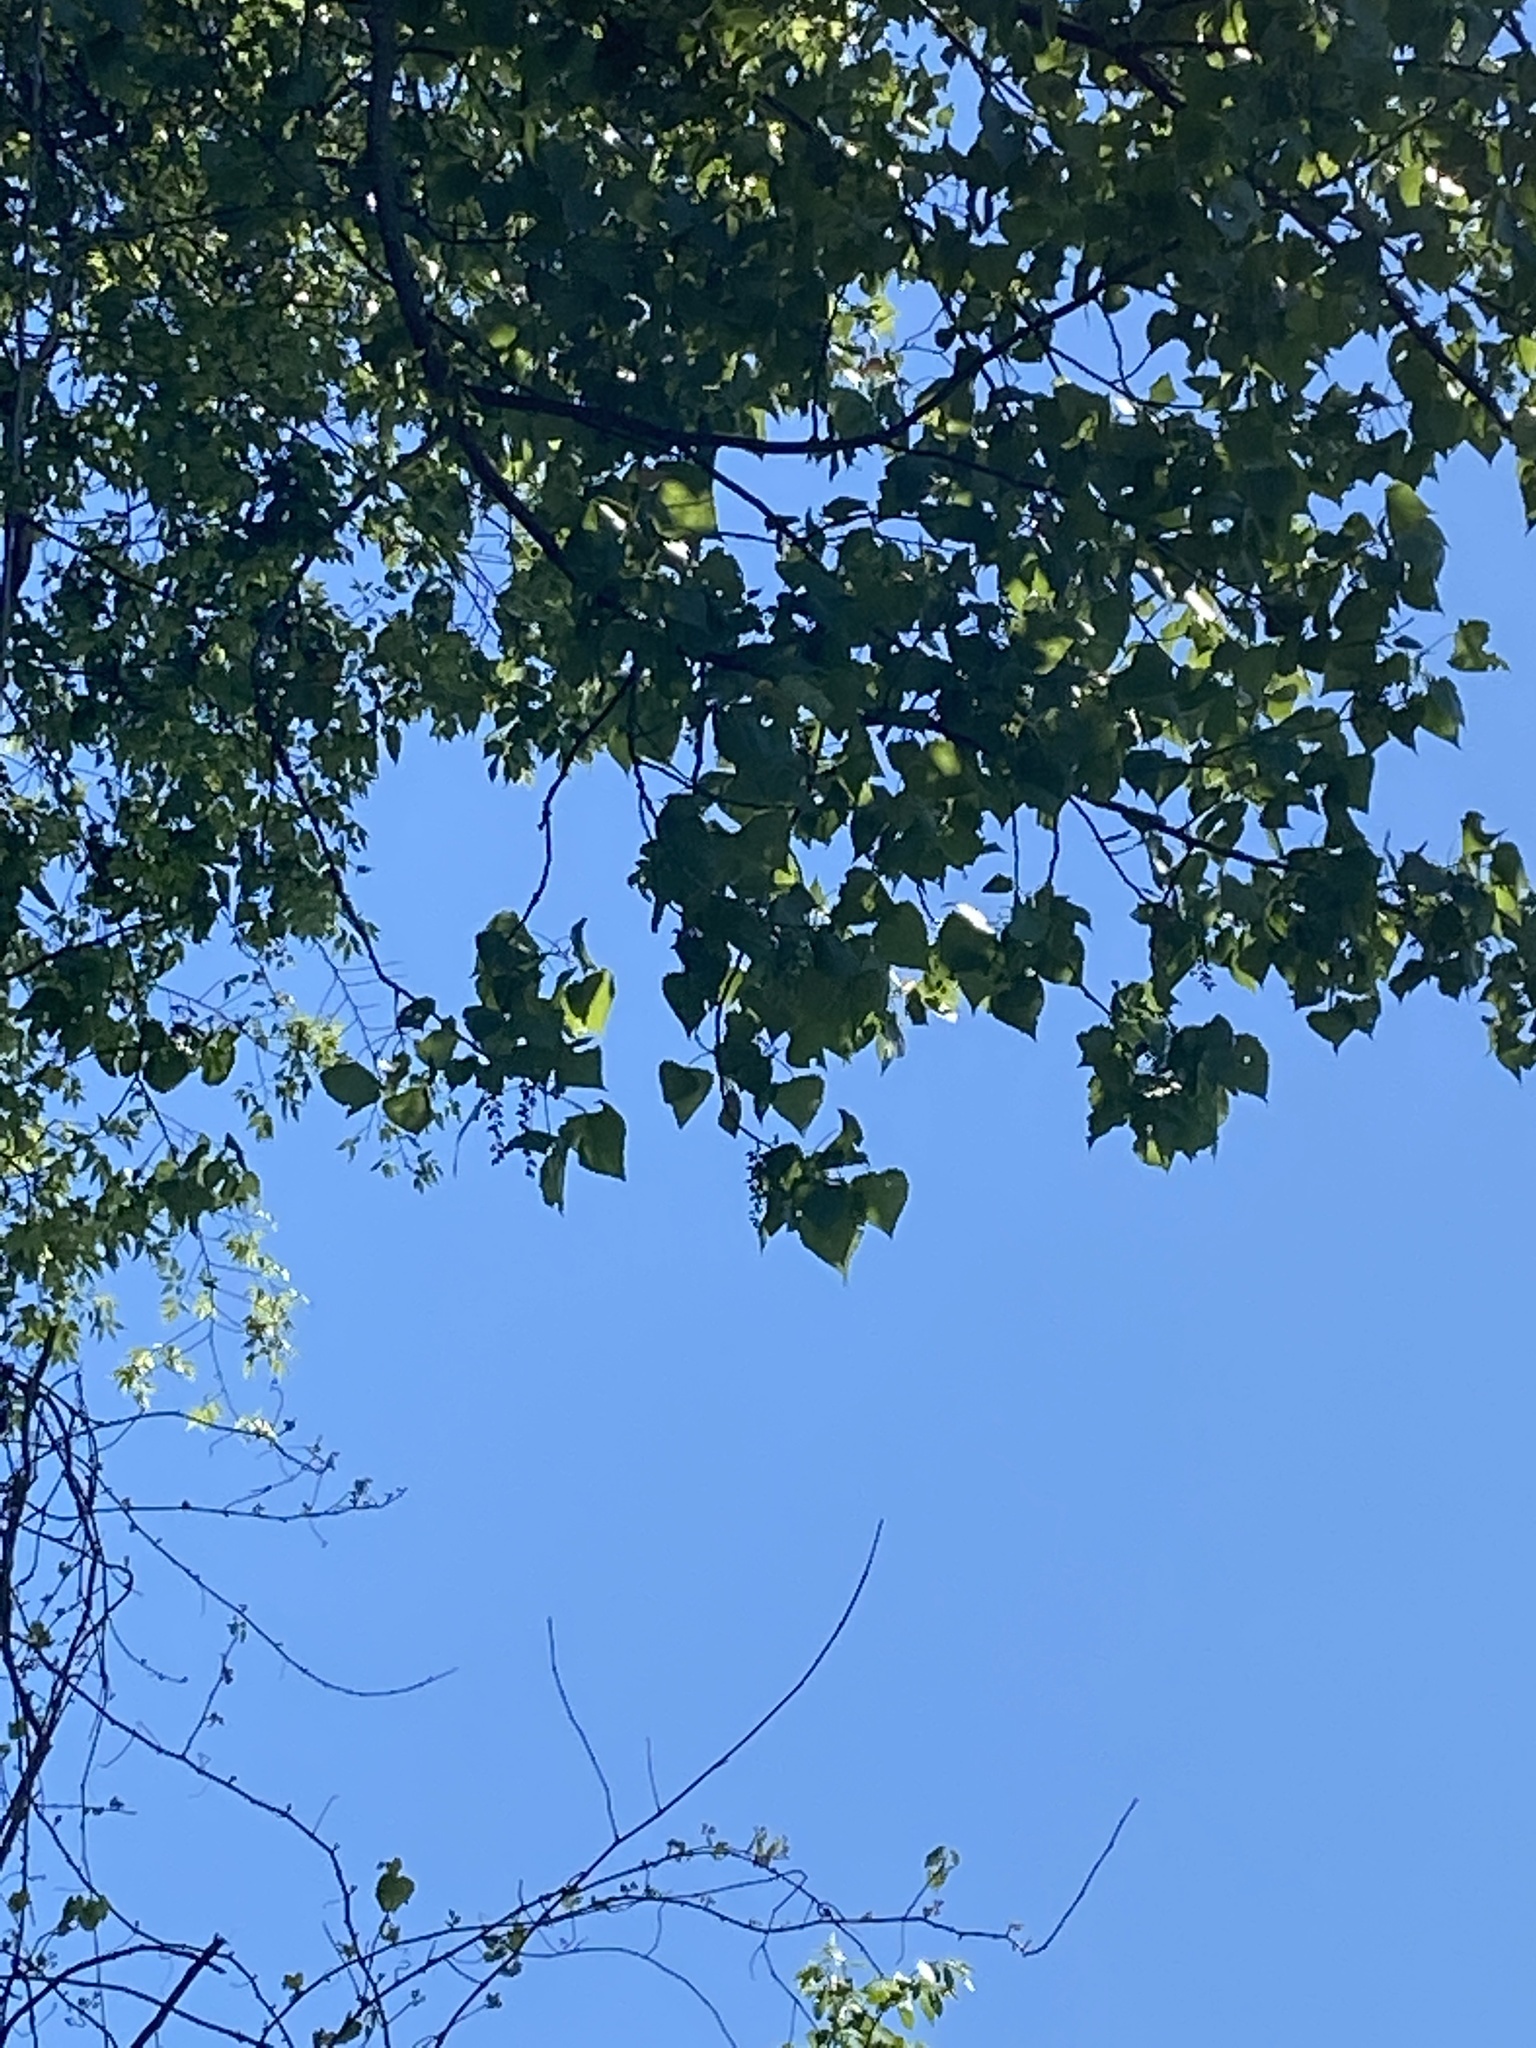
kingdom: Plantae
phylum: Tracheophyta
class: Magnoliopsida
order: Malpighiales
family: Salicaceae
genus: Populus
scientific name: Populus deltoides
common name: Eastern cottonwood
